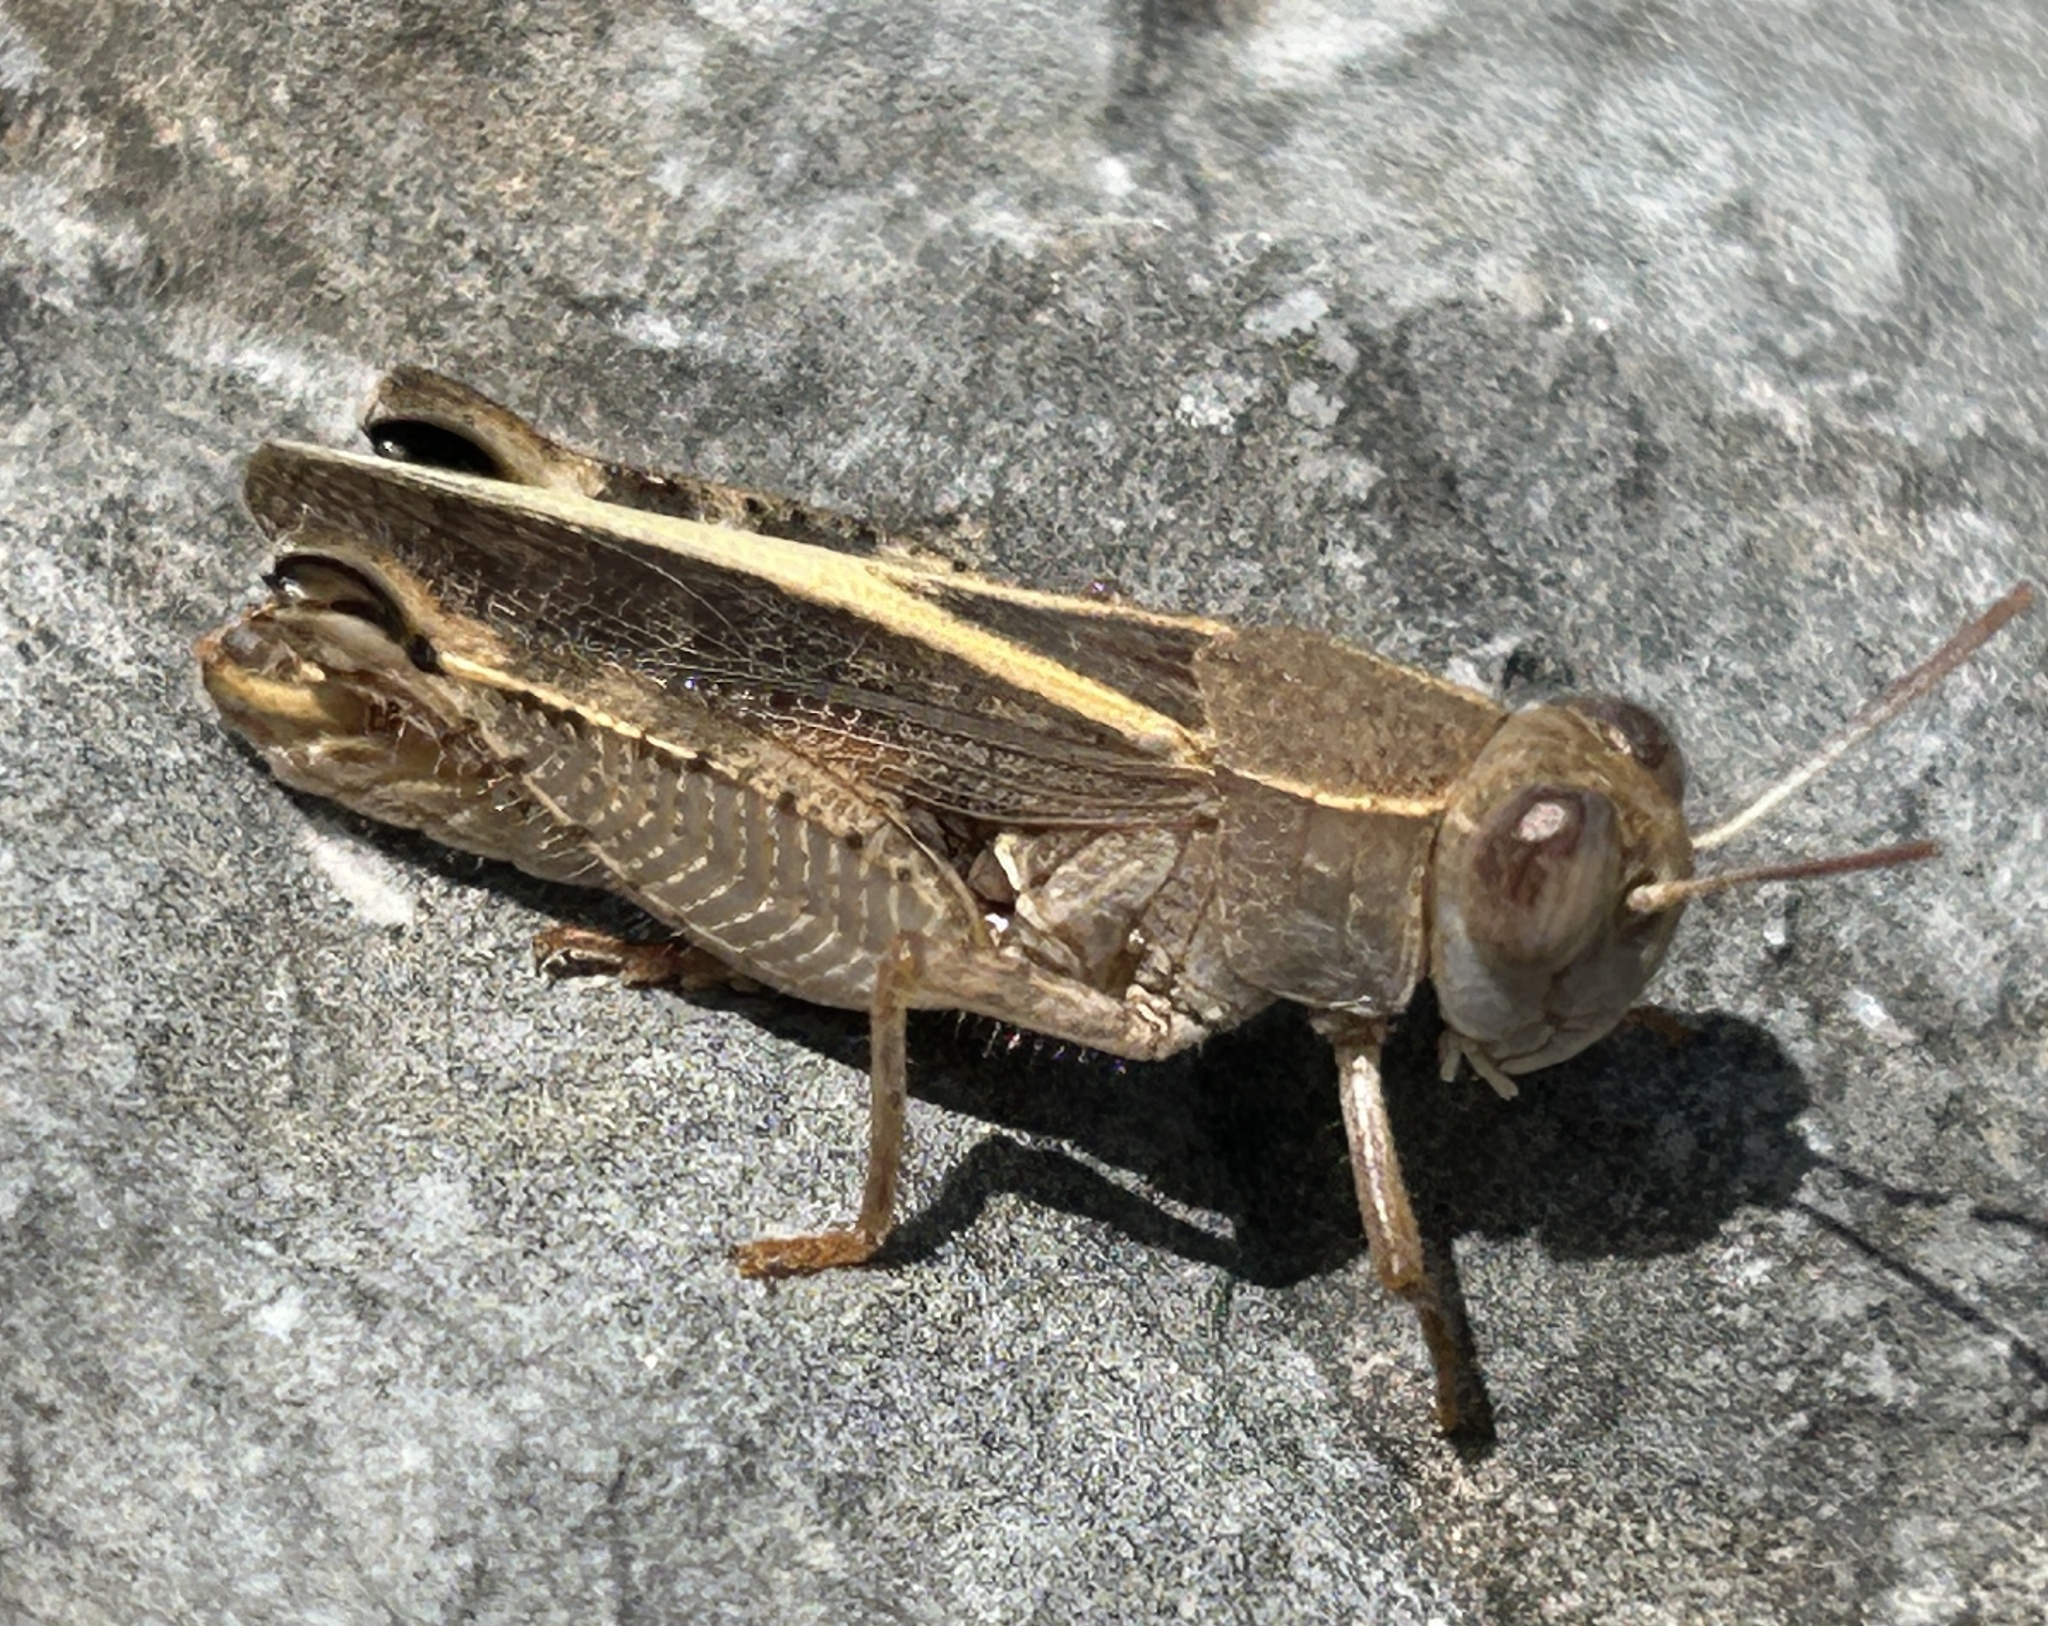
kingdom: Animalia
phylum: Arthropoda
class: Insecta
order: Orthoptera
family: Acrididae
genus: Calliptamus
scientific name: Calliptamus
